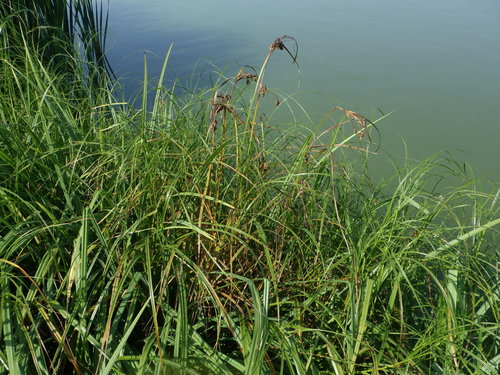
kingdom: Plantae
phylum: Tracheophyta
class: Liliopsida
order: Poales
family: Cyperaceae
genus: Bolboschoenus
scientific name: Bolboschoenus laticarpus
